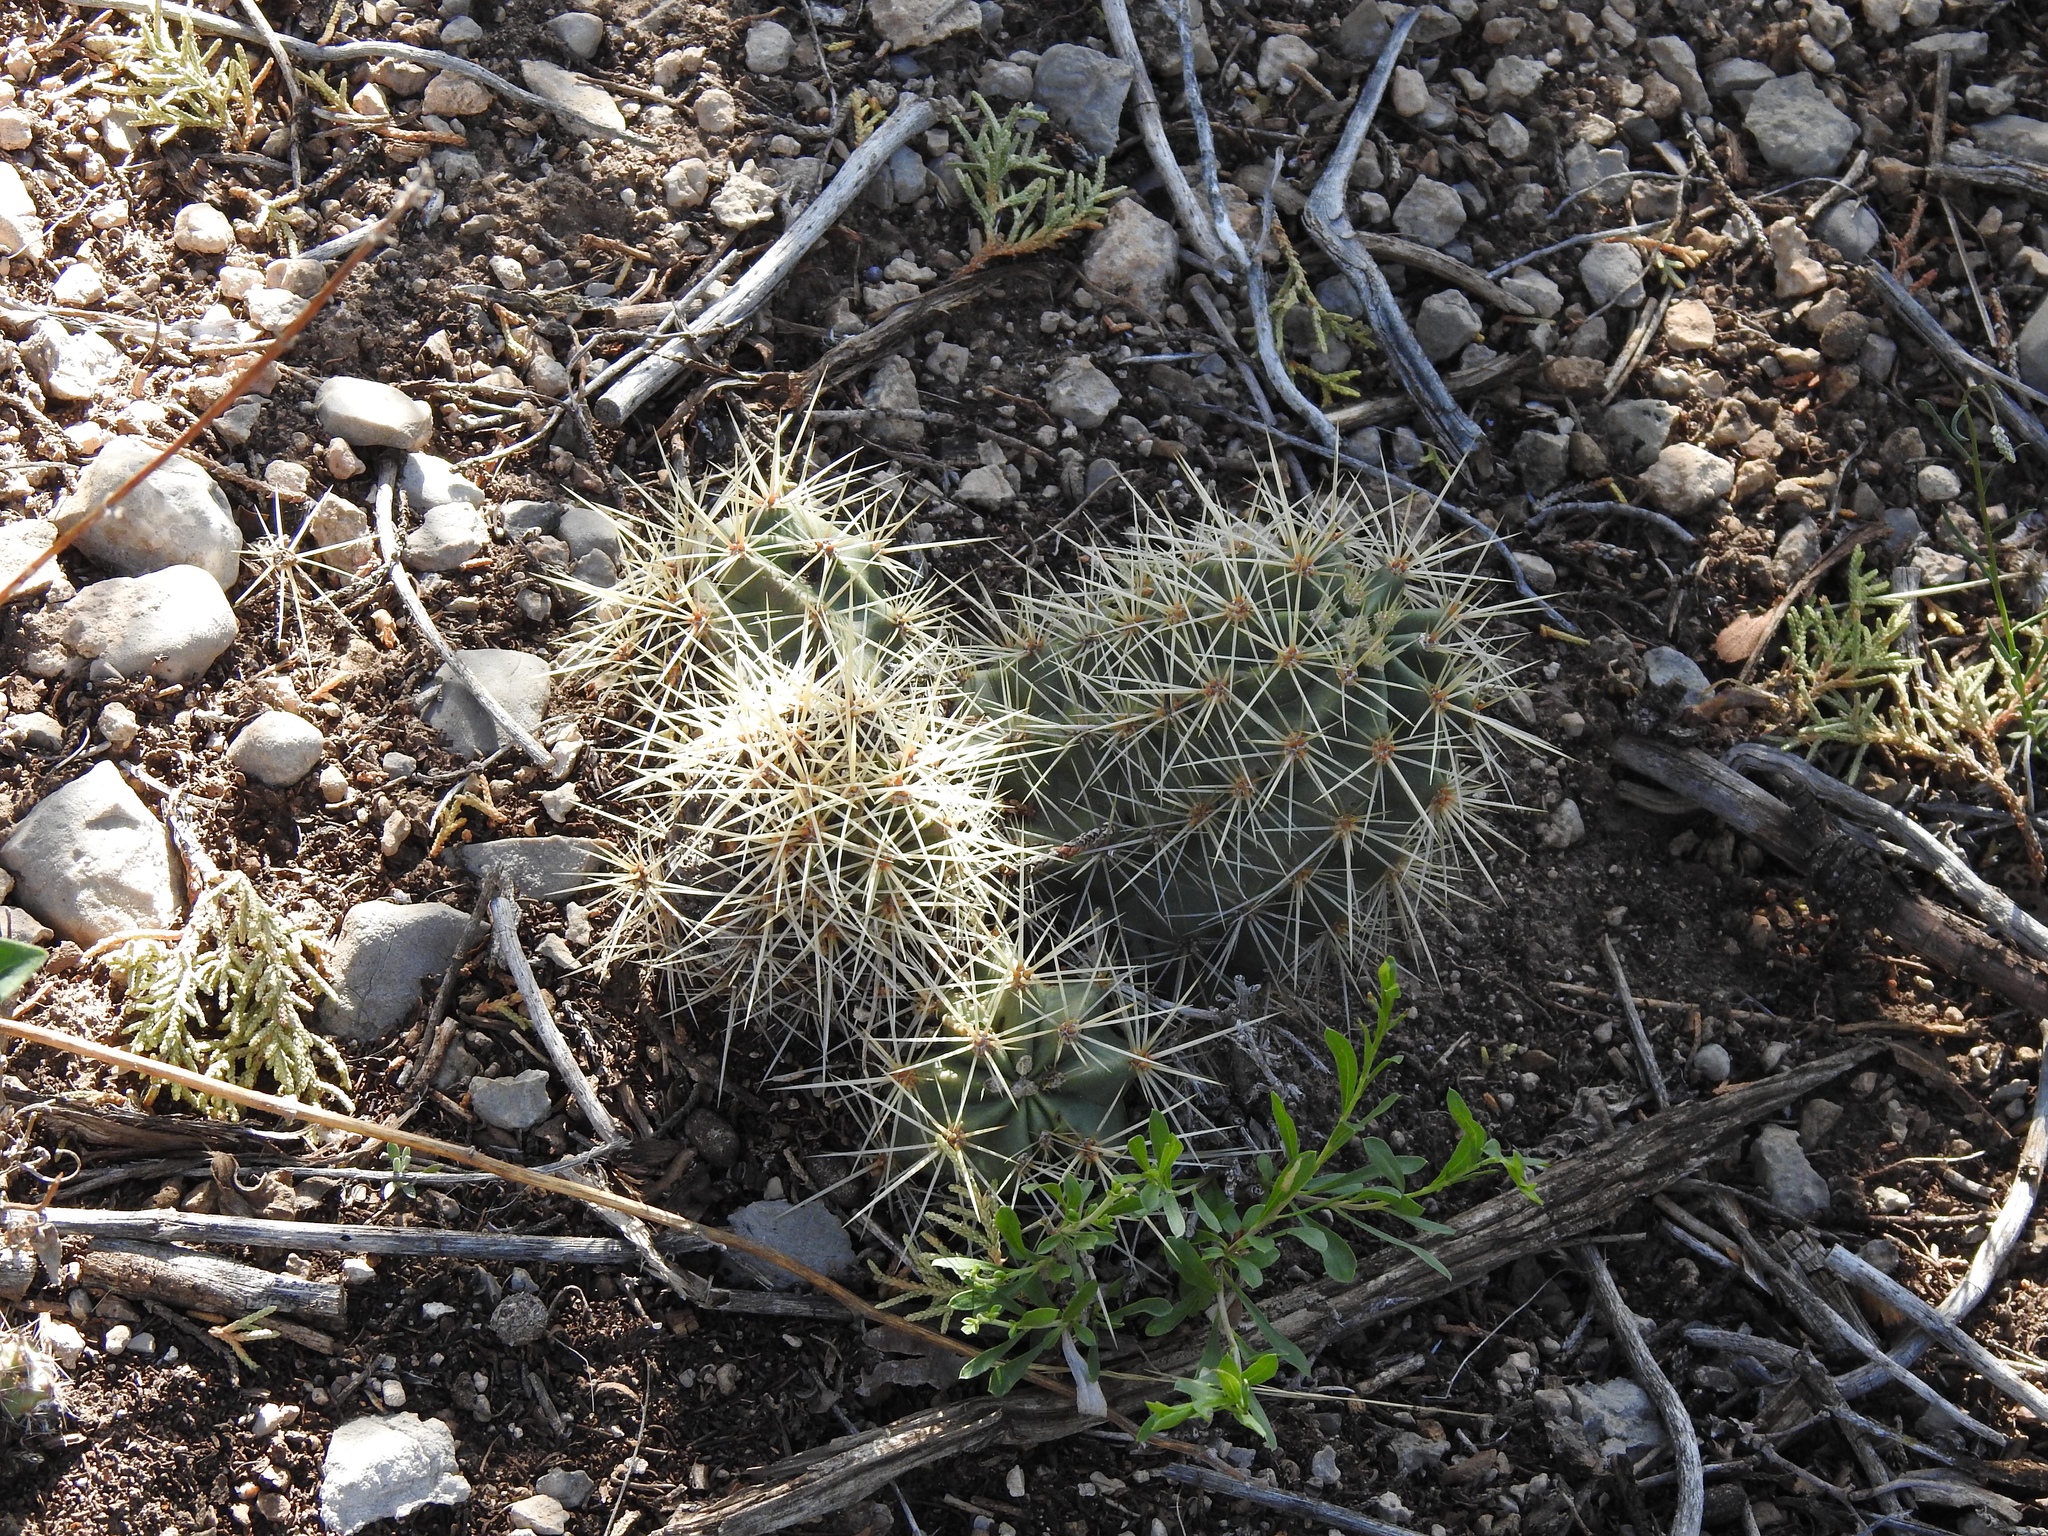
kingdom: Plantae
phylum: Tracheophyta
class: Magnoliopsida
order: Caryophyllales
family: Cactaceae
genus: Echinocereus
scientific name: Echinocereus coccineus
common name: Scarlet hedgehog cactus
